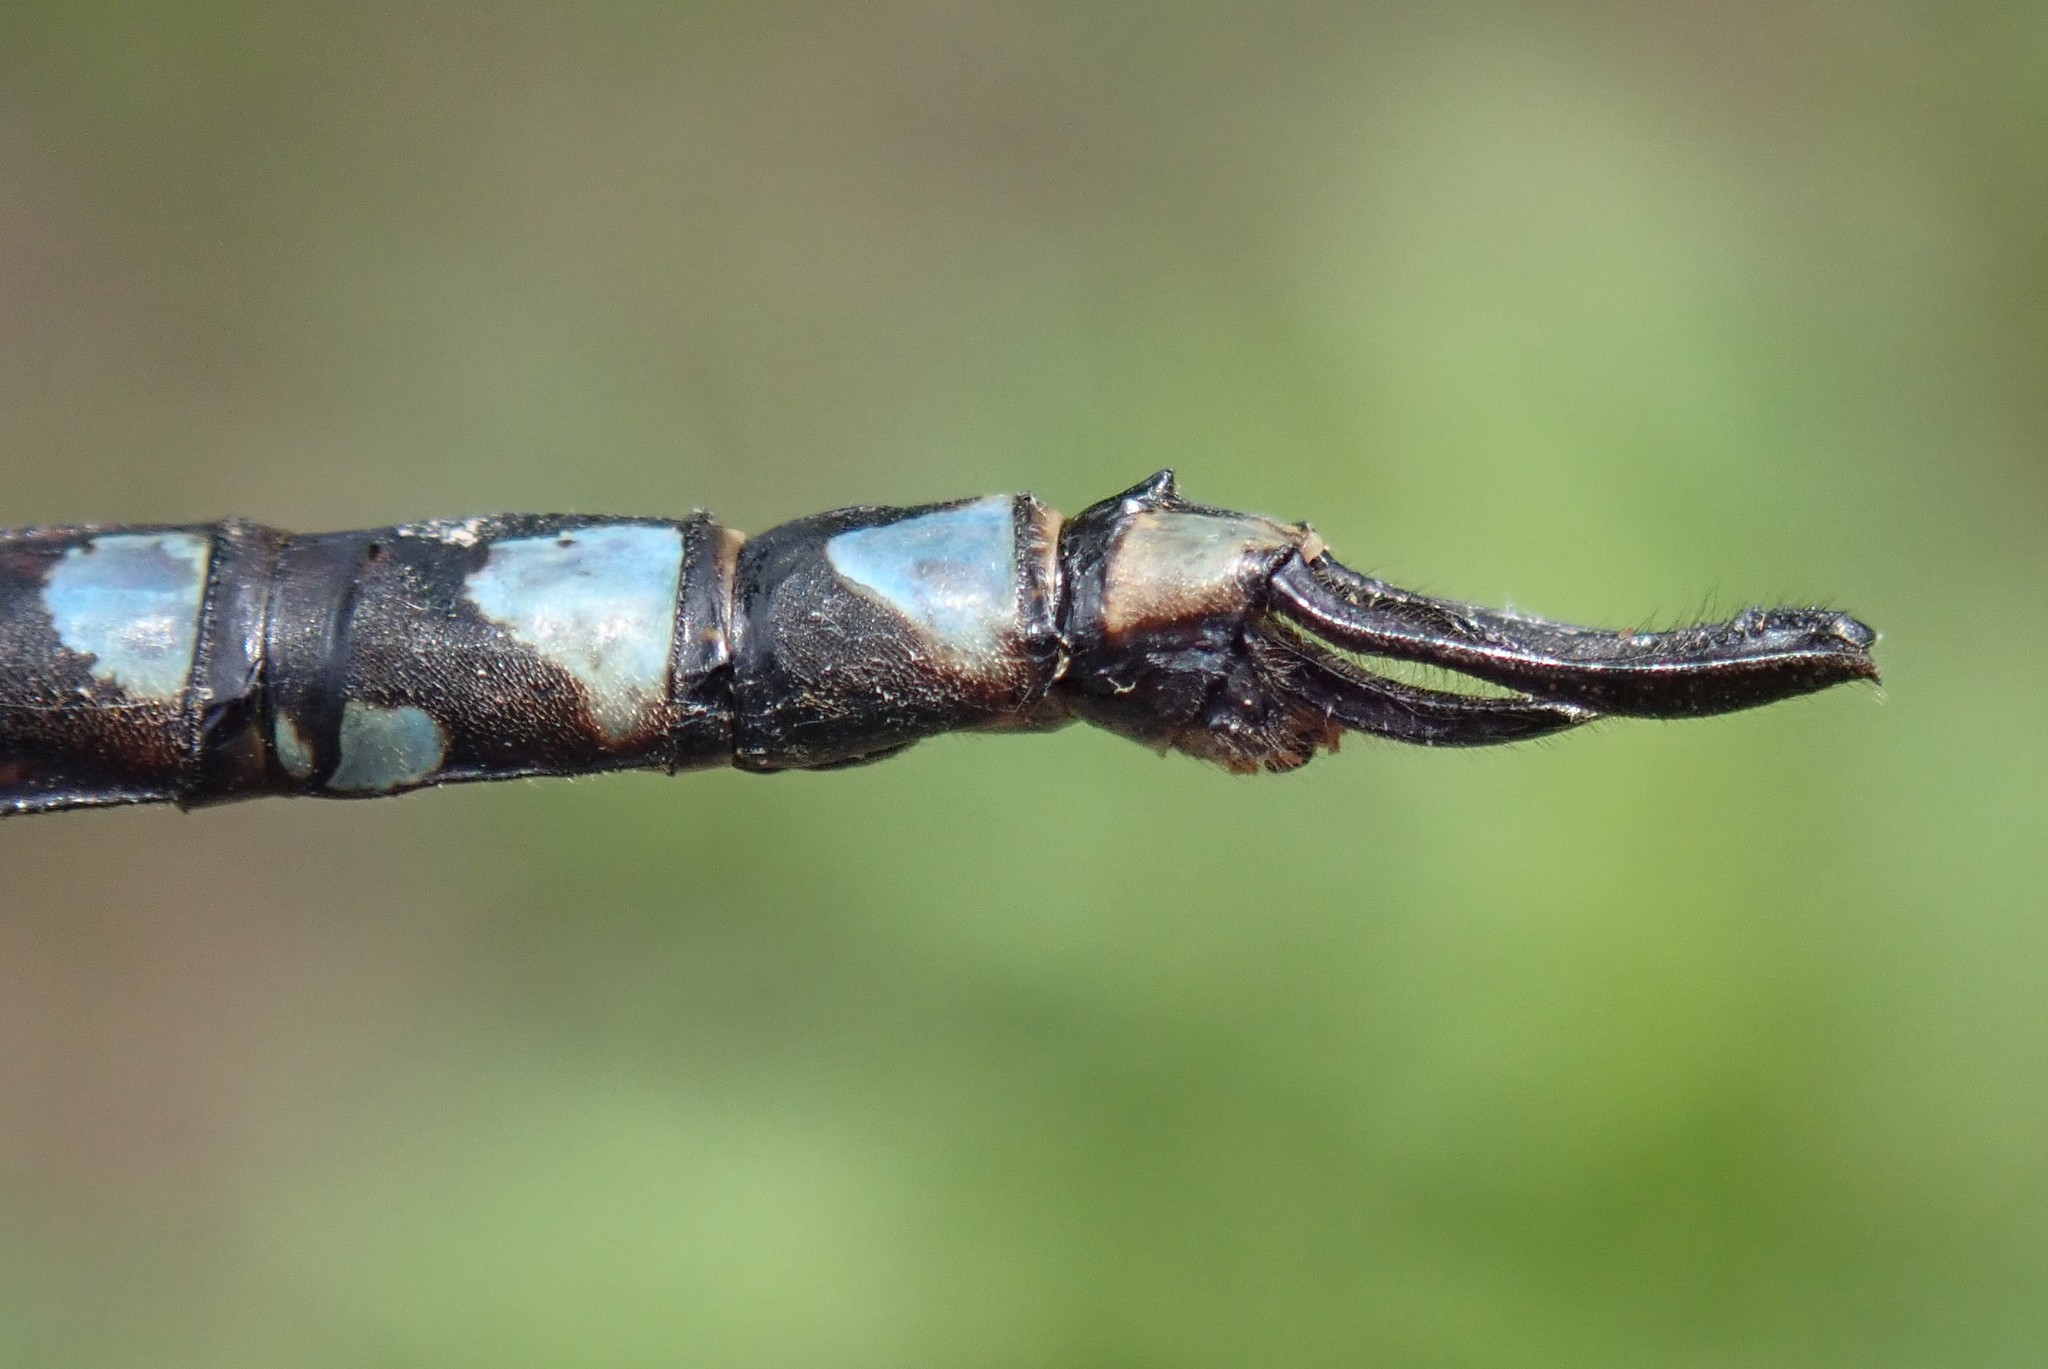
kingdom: Animalia
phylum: Arthropoda
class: Insecta
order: Odonata
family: Aeshnidae
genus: Aeshna
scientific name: Aeshna canadensis
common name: Canada darner
